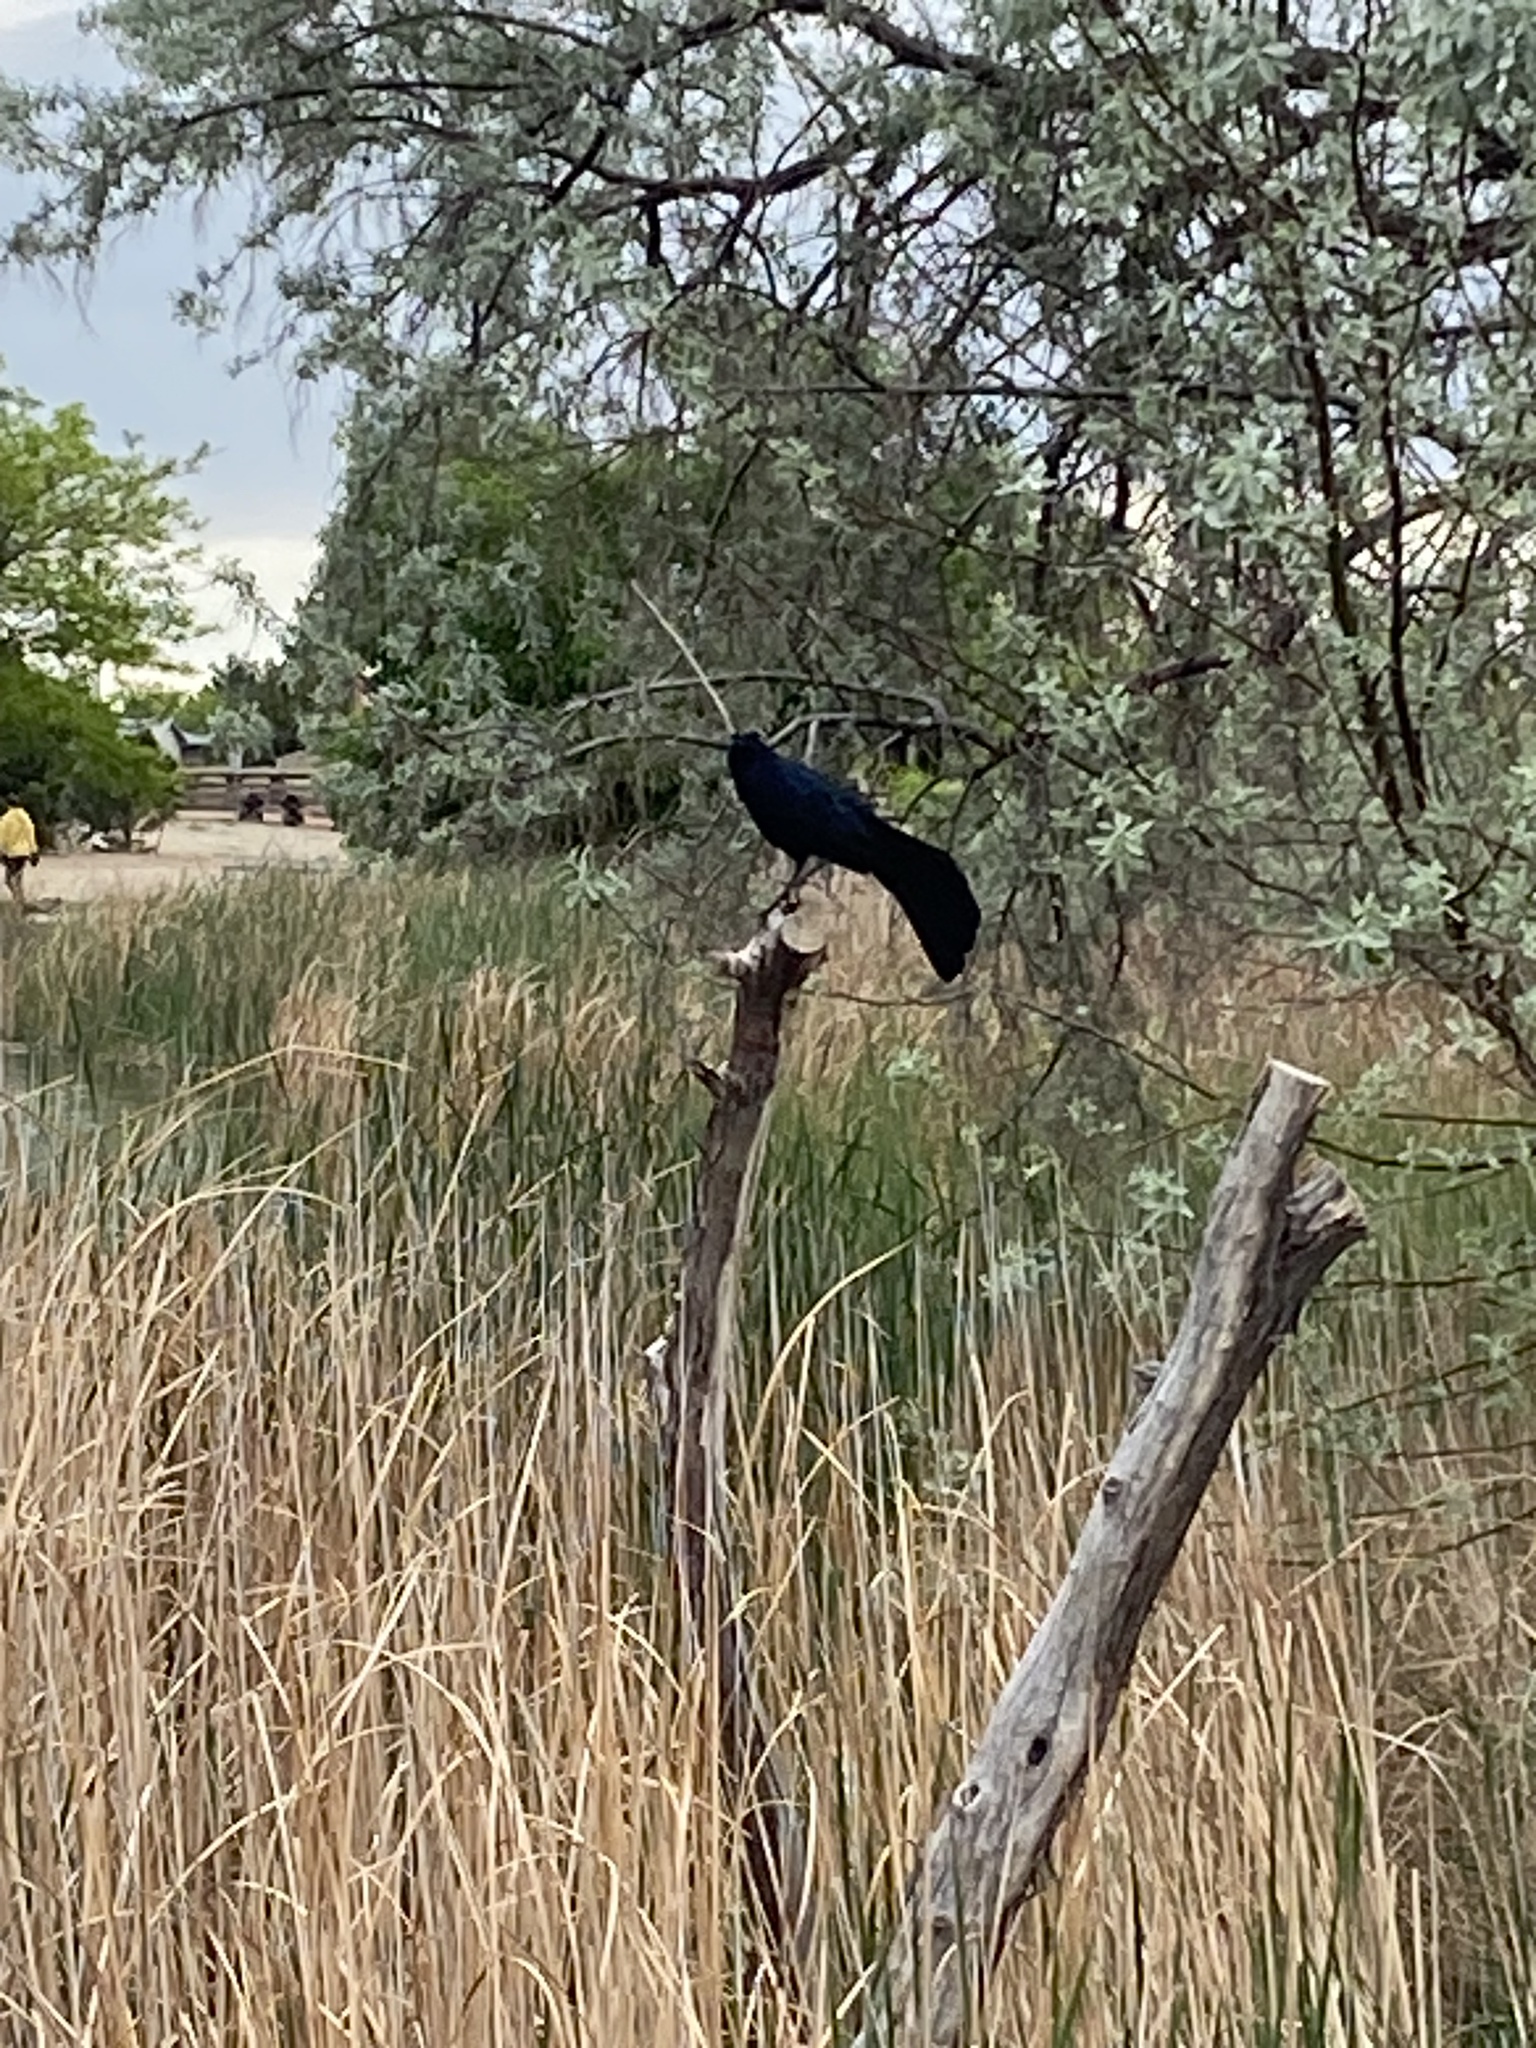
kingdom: Animalia
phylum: Chordata
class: Aves
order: Passeriformes
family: Icteridae
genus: Quiscalus
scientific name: Quiscalus mexicanus
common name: Great-tailed grackle
